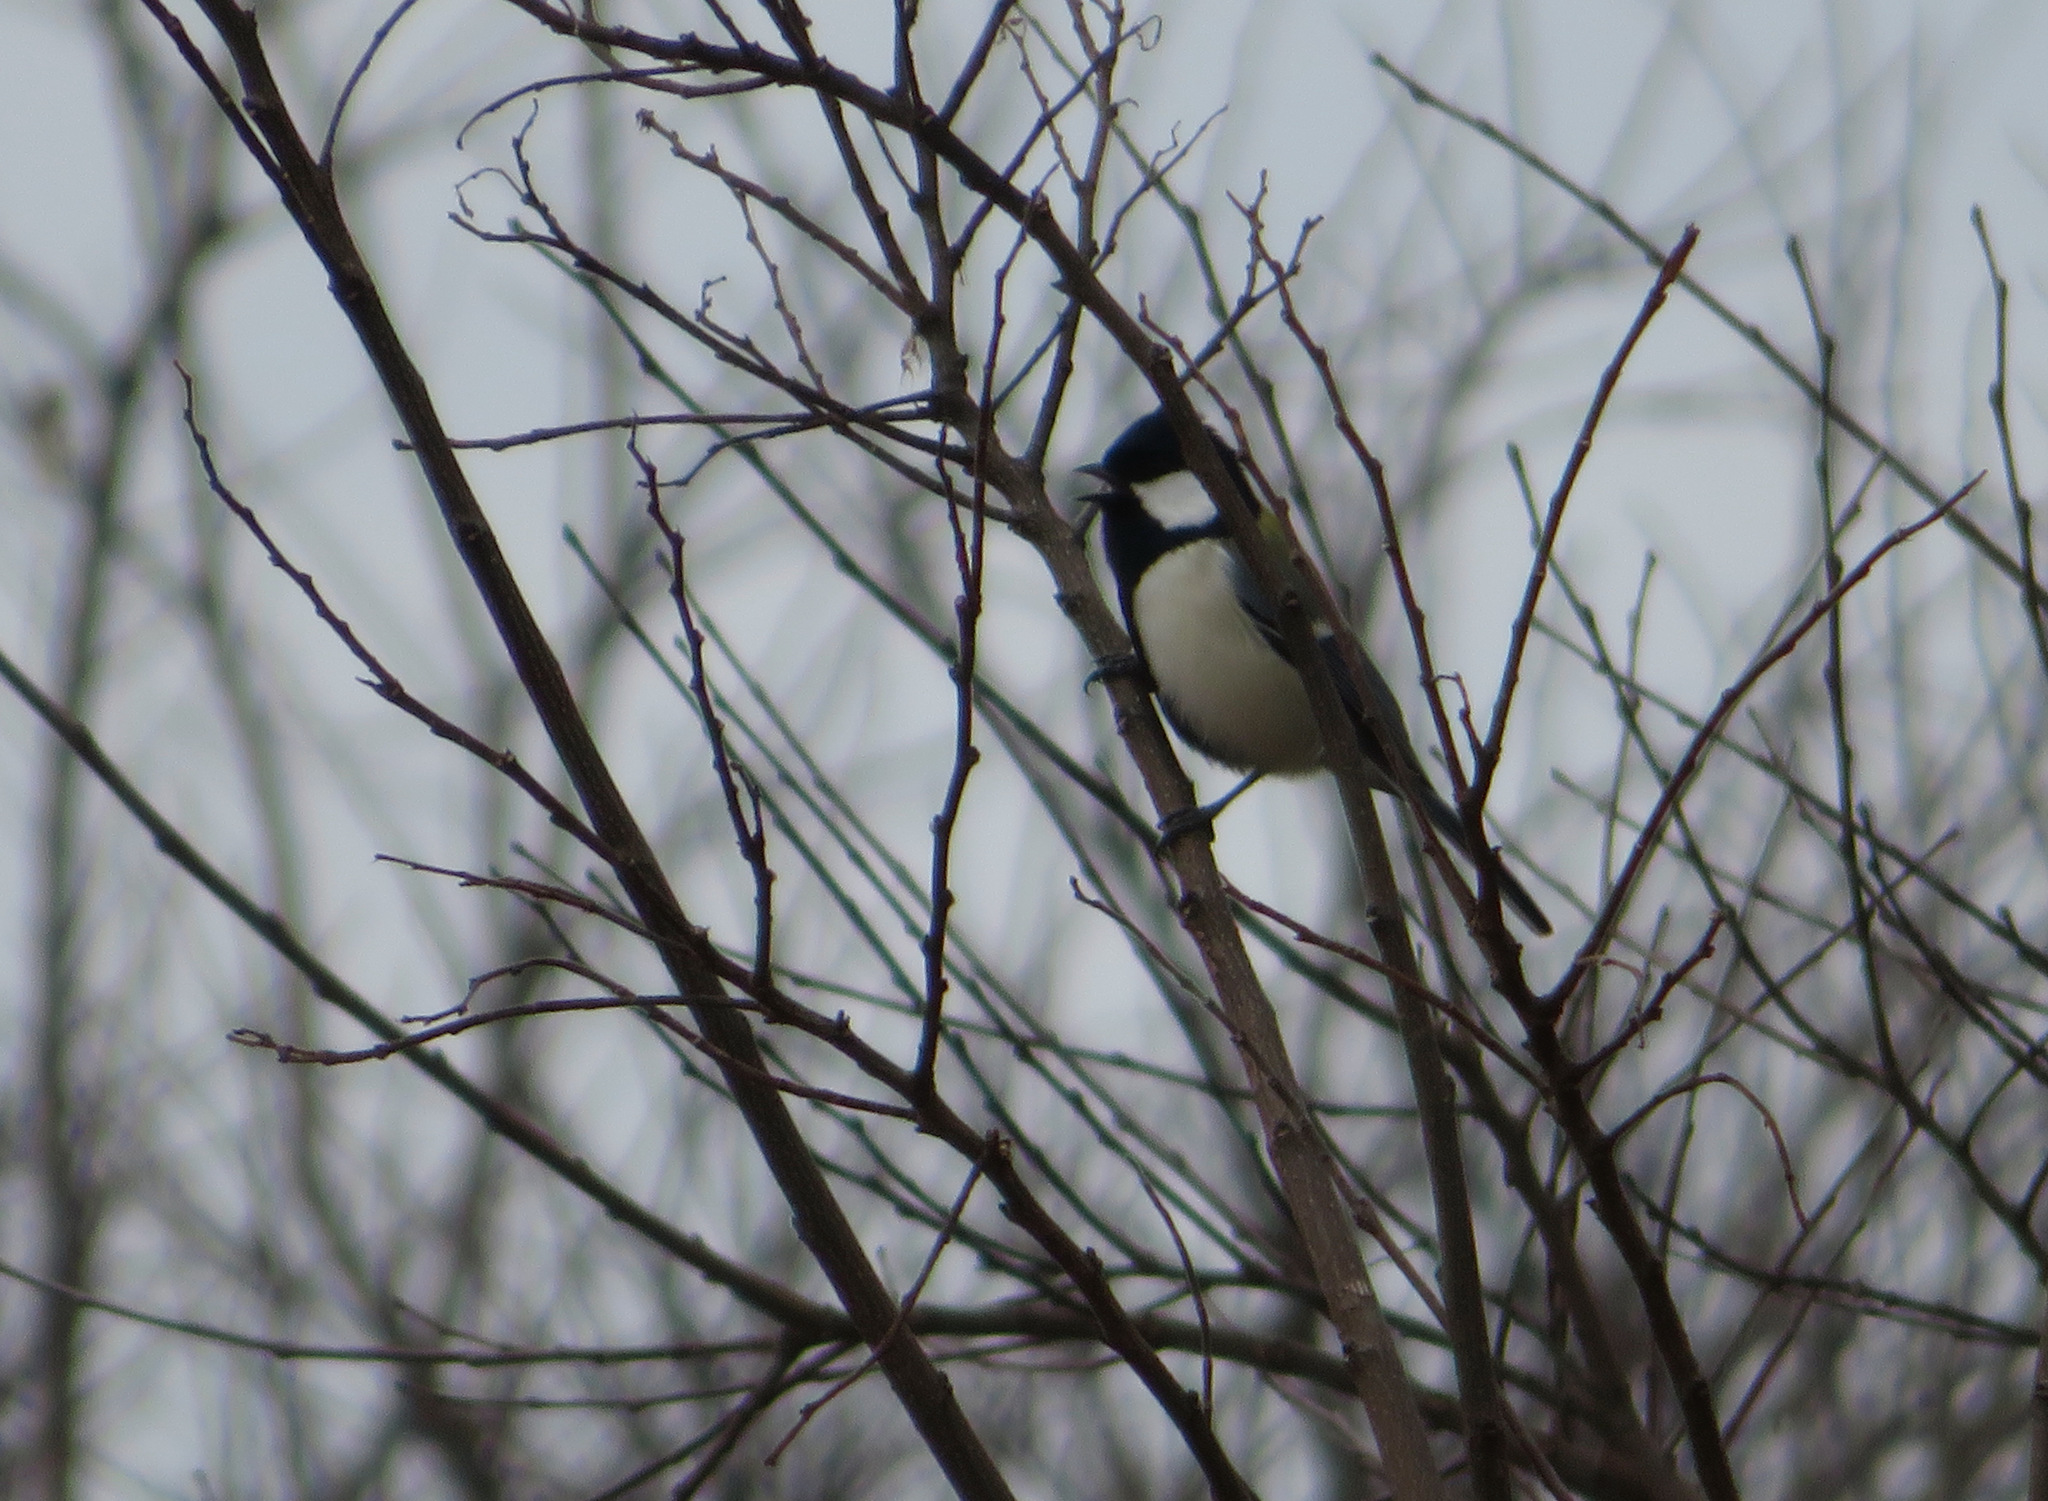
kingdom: Animalia
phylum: Chordata
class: Aves
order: Passeriformes
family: Paridae
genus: Parus
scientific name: Parus minor
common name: Japanese tit
